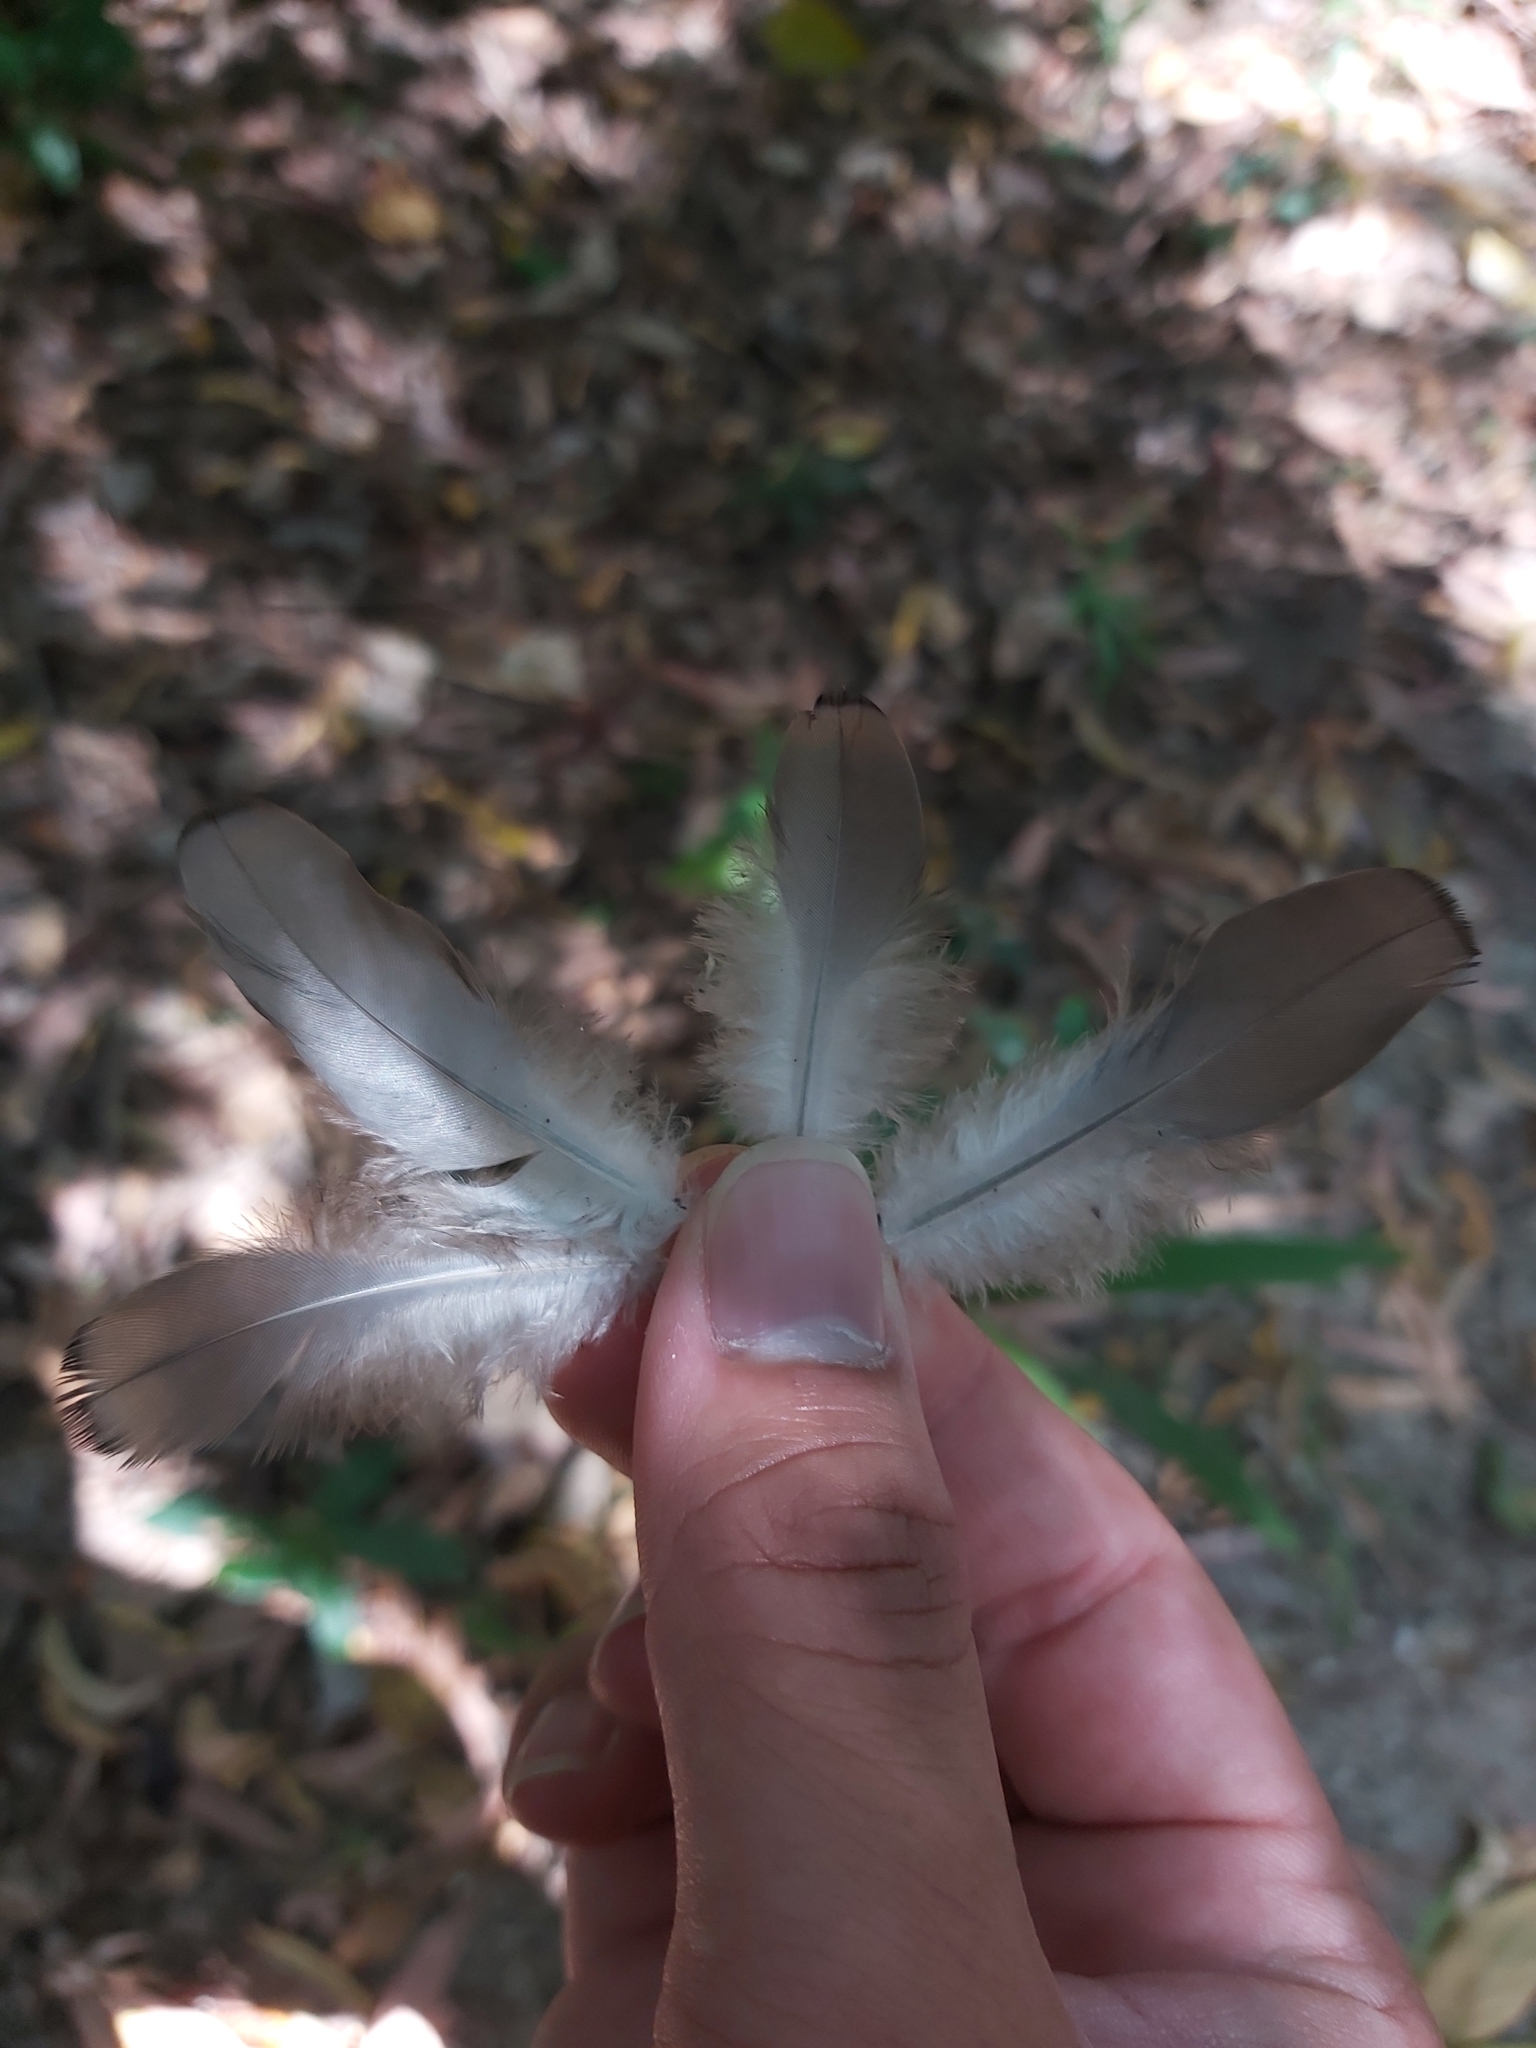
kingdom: Animalia
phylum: Chordata
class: Aves
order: Columbiformes
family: Columbidae
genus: Geopelia
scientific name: Geopelia humeralis
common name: Bar-shouldered dove
